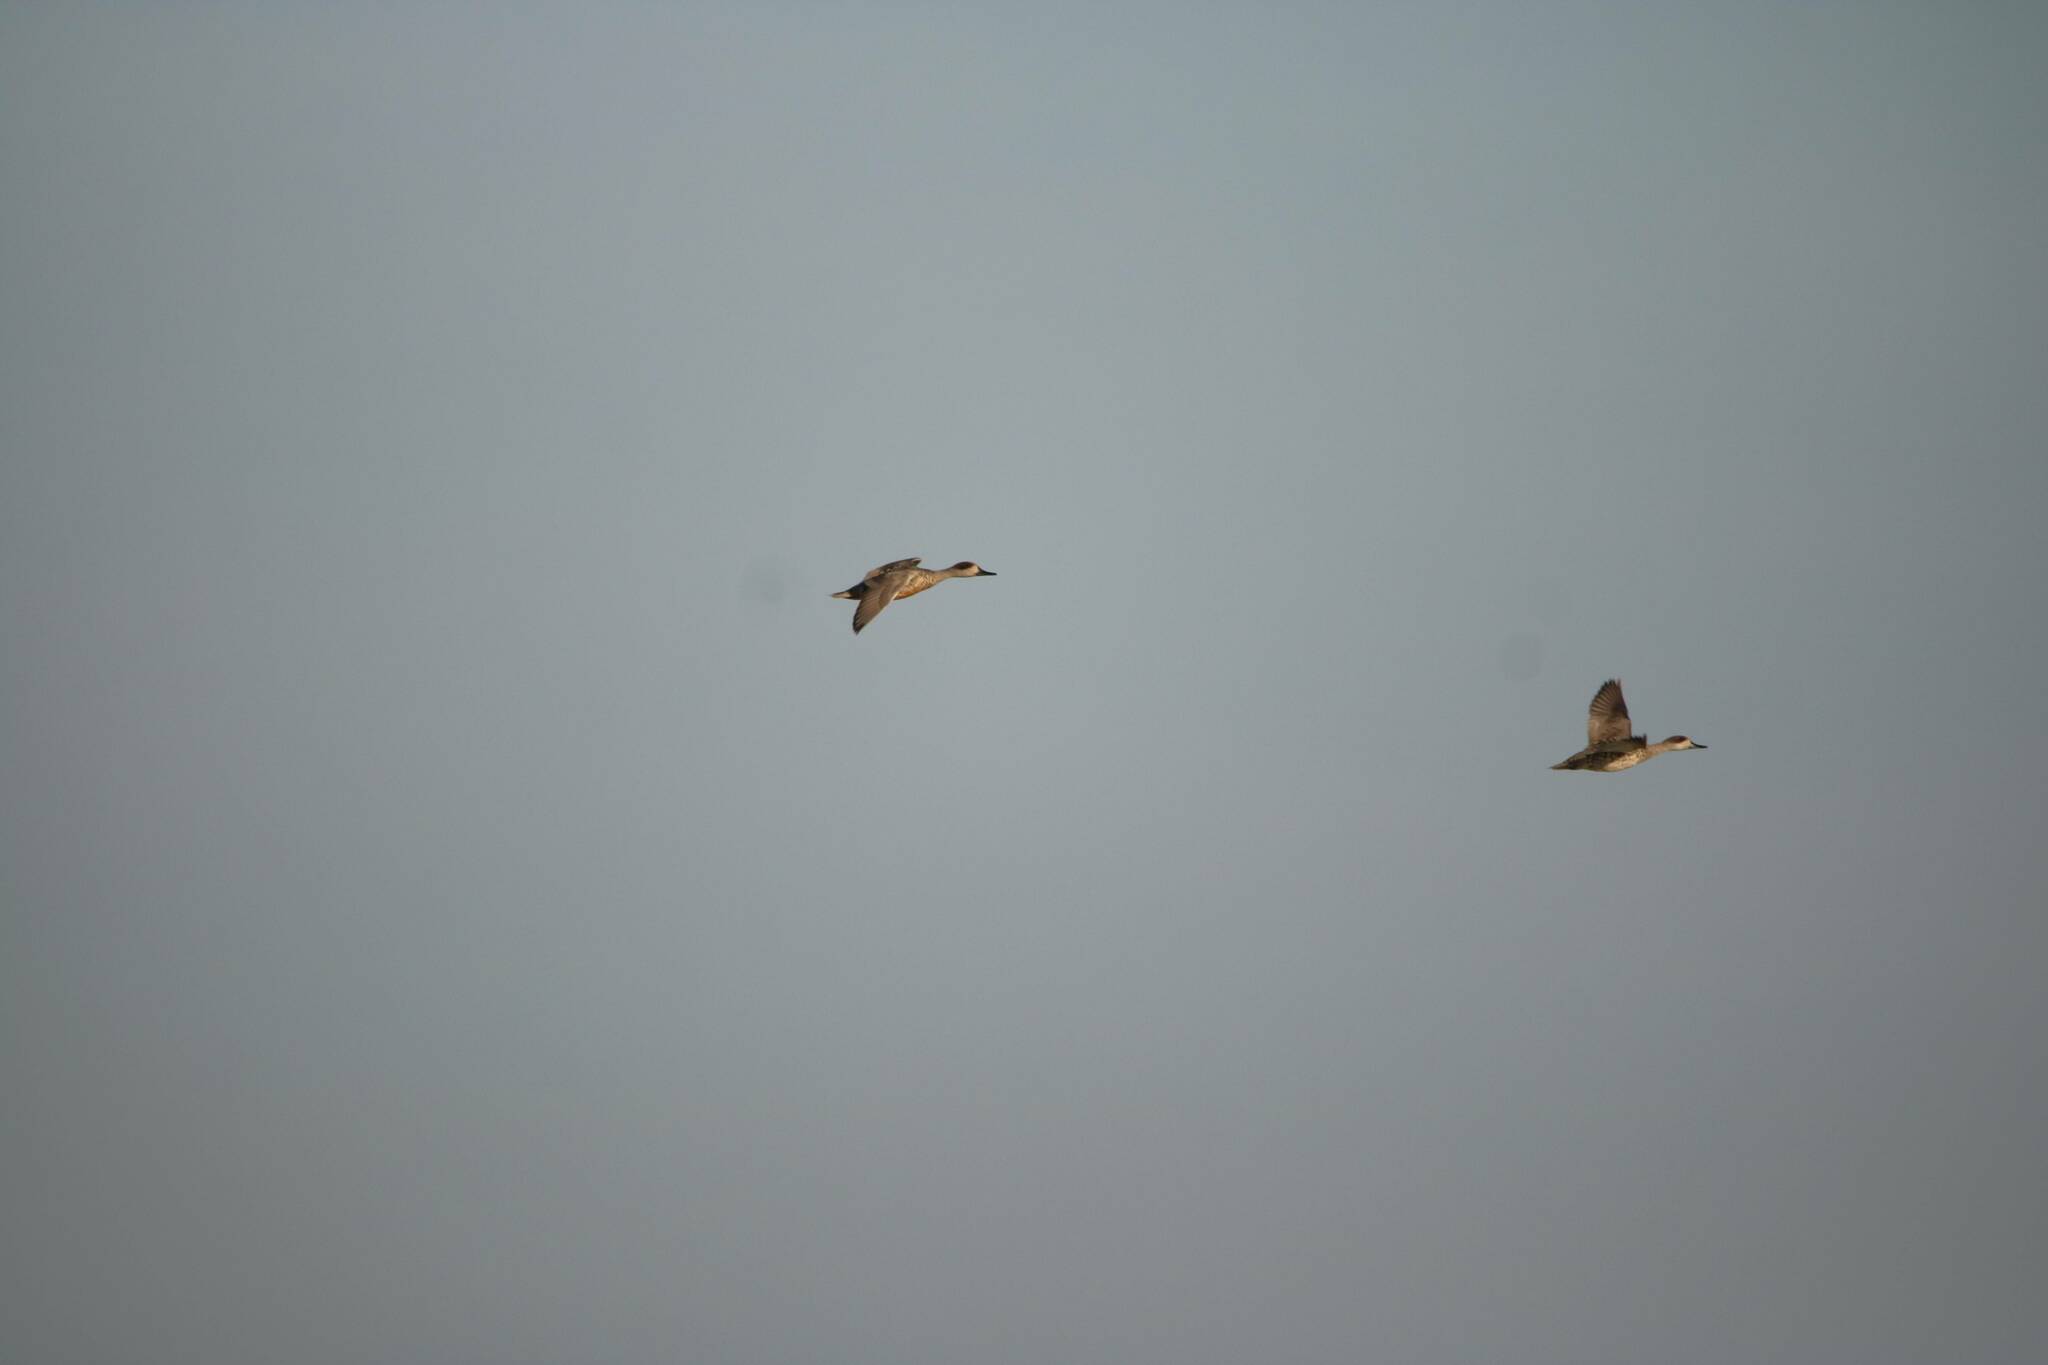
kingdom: Animalia
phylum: Chordata
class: Aves
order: Anseriformes
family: Anatidae
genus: Marmaronetta
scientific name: Marmaronetta angustirostris
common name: Marbled duck
